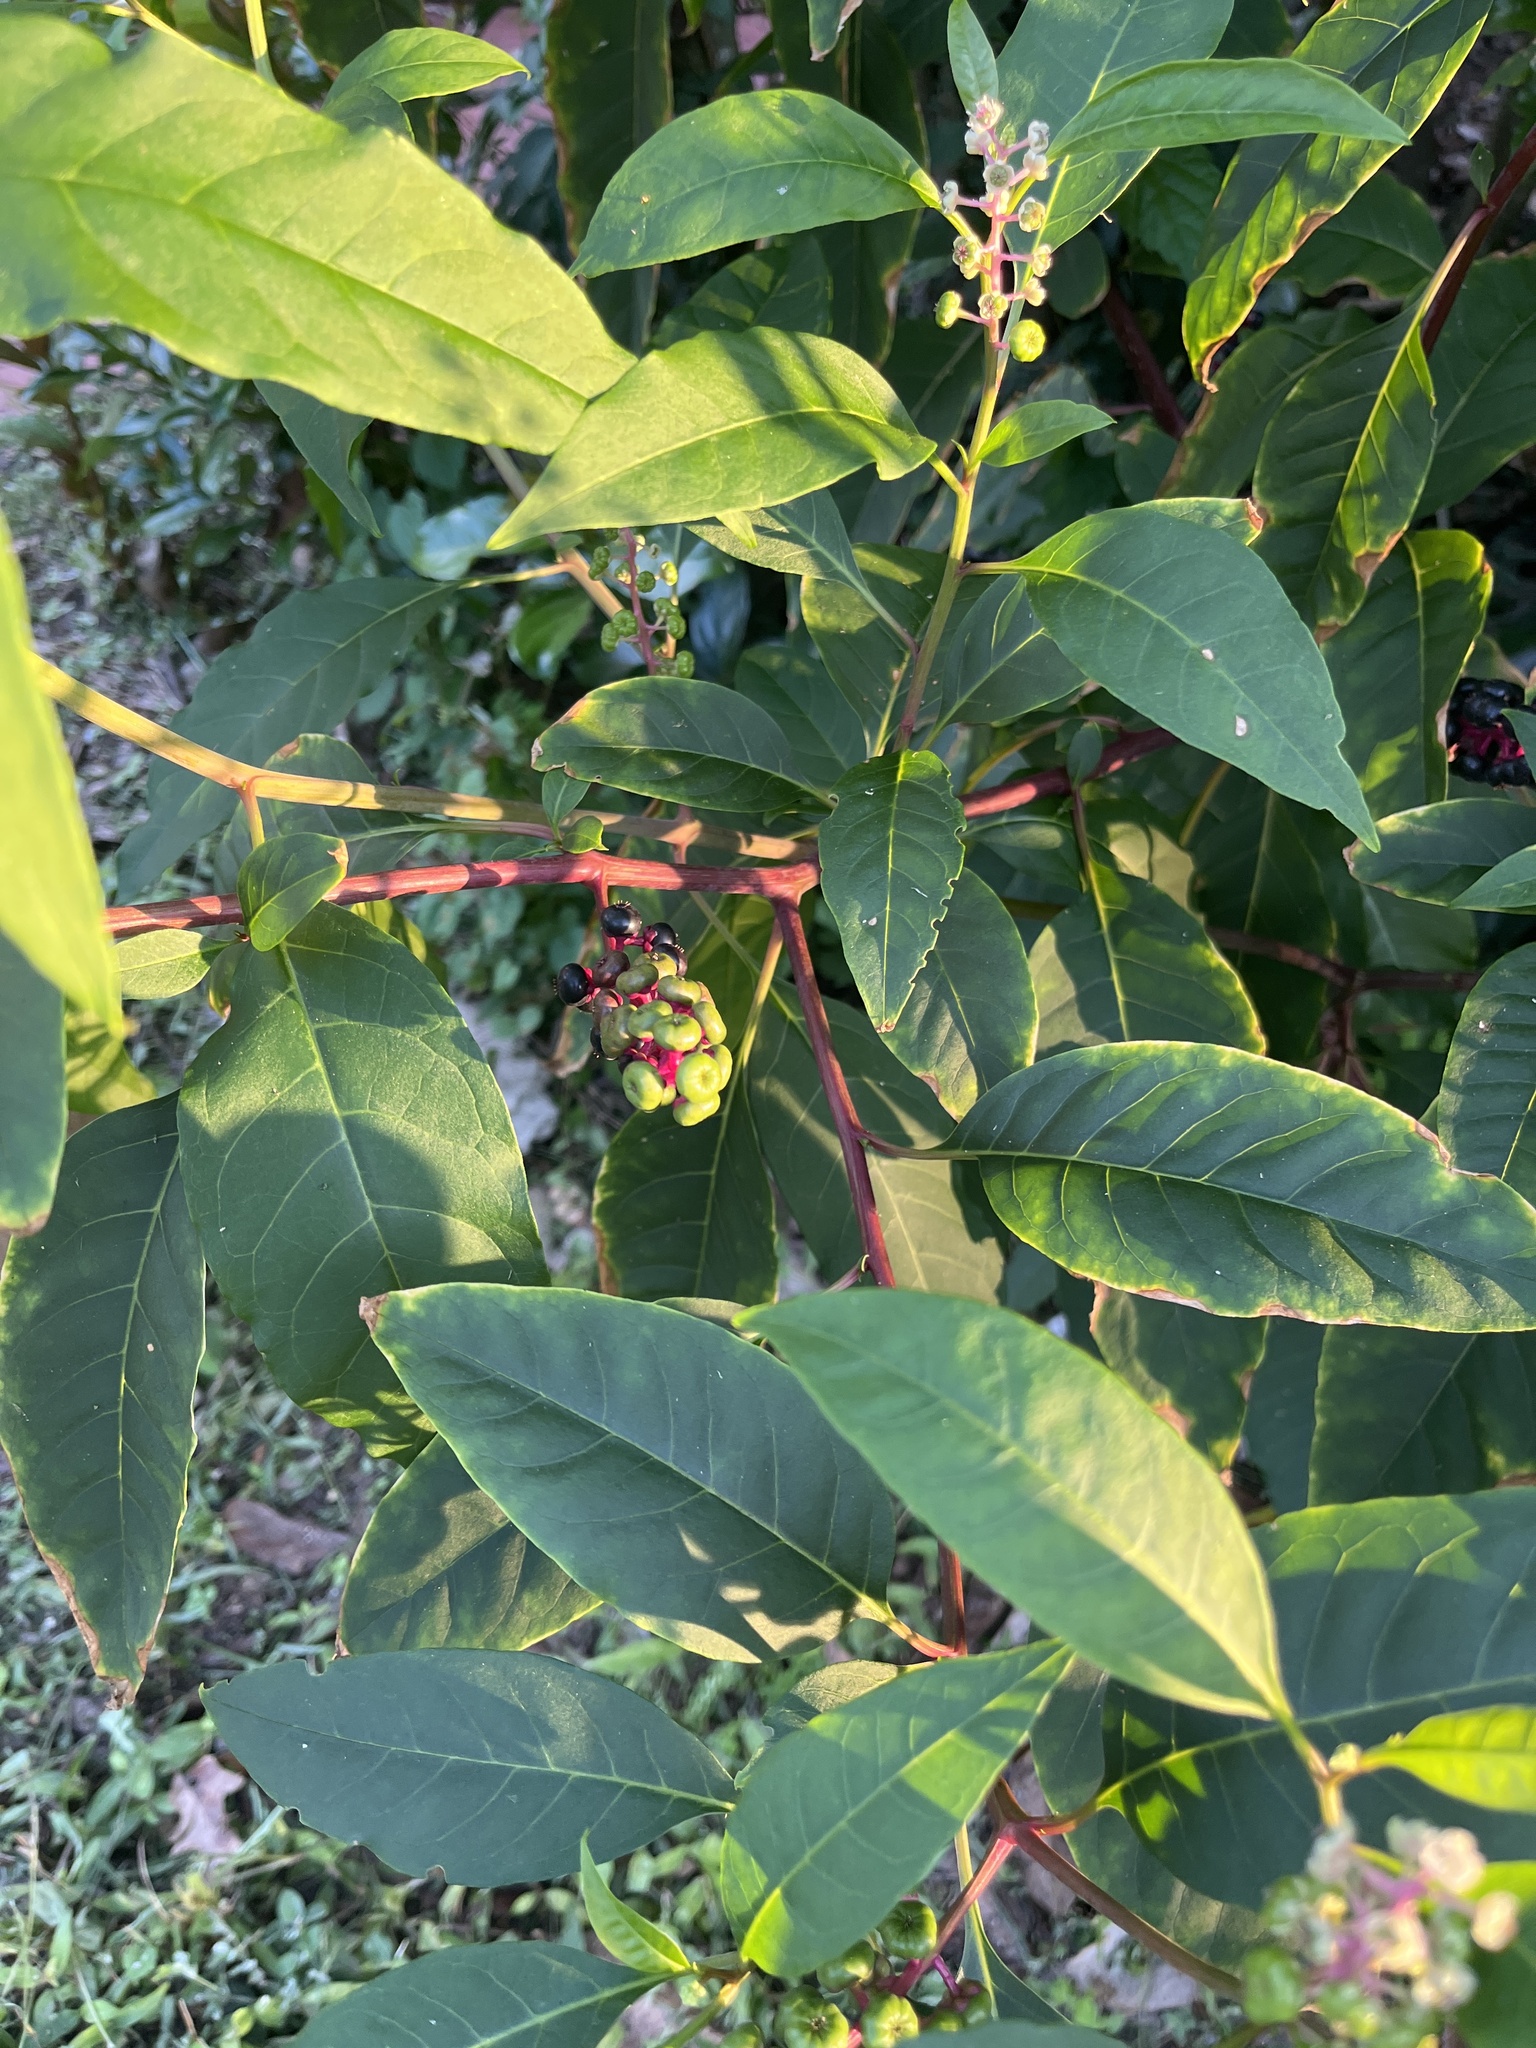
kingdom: Plantae
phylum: Tracheophyta
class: Magnoliopsida
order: Caryophyllales
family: Phytolaccaceae
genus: Phytolacca
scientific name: Phytolacca americana
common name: American pokeweed
